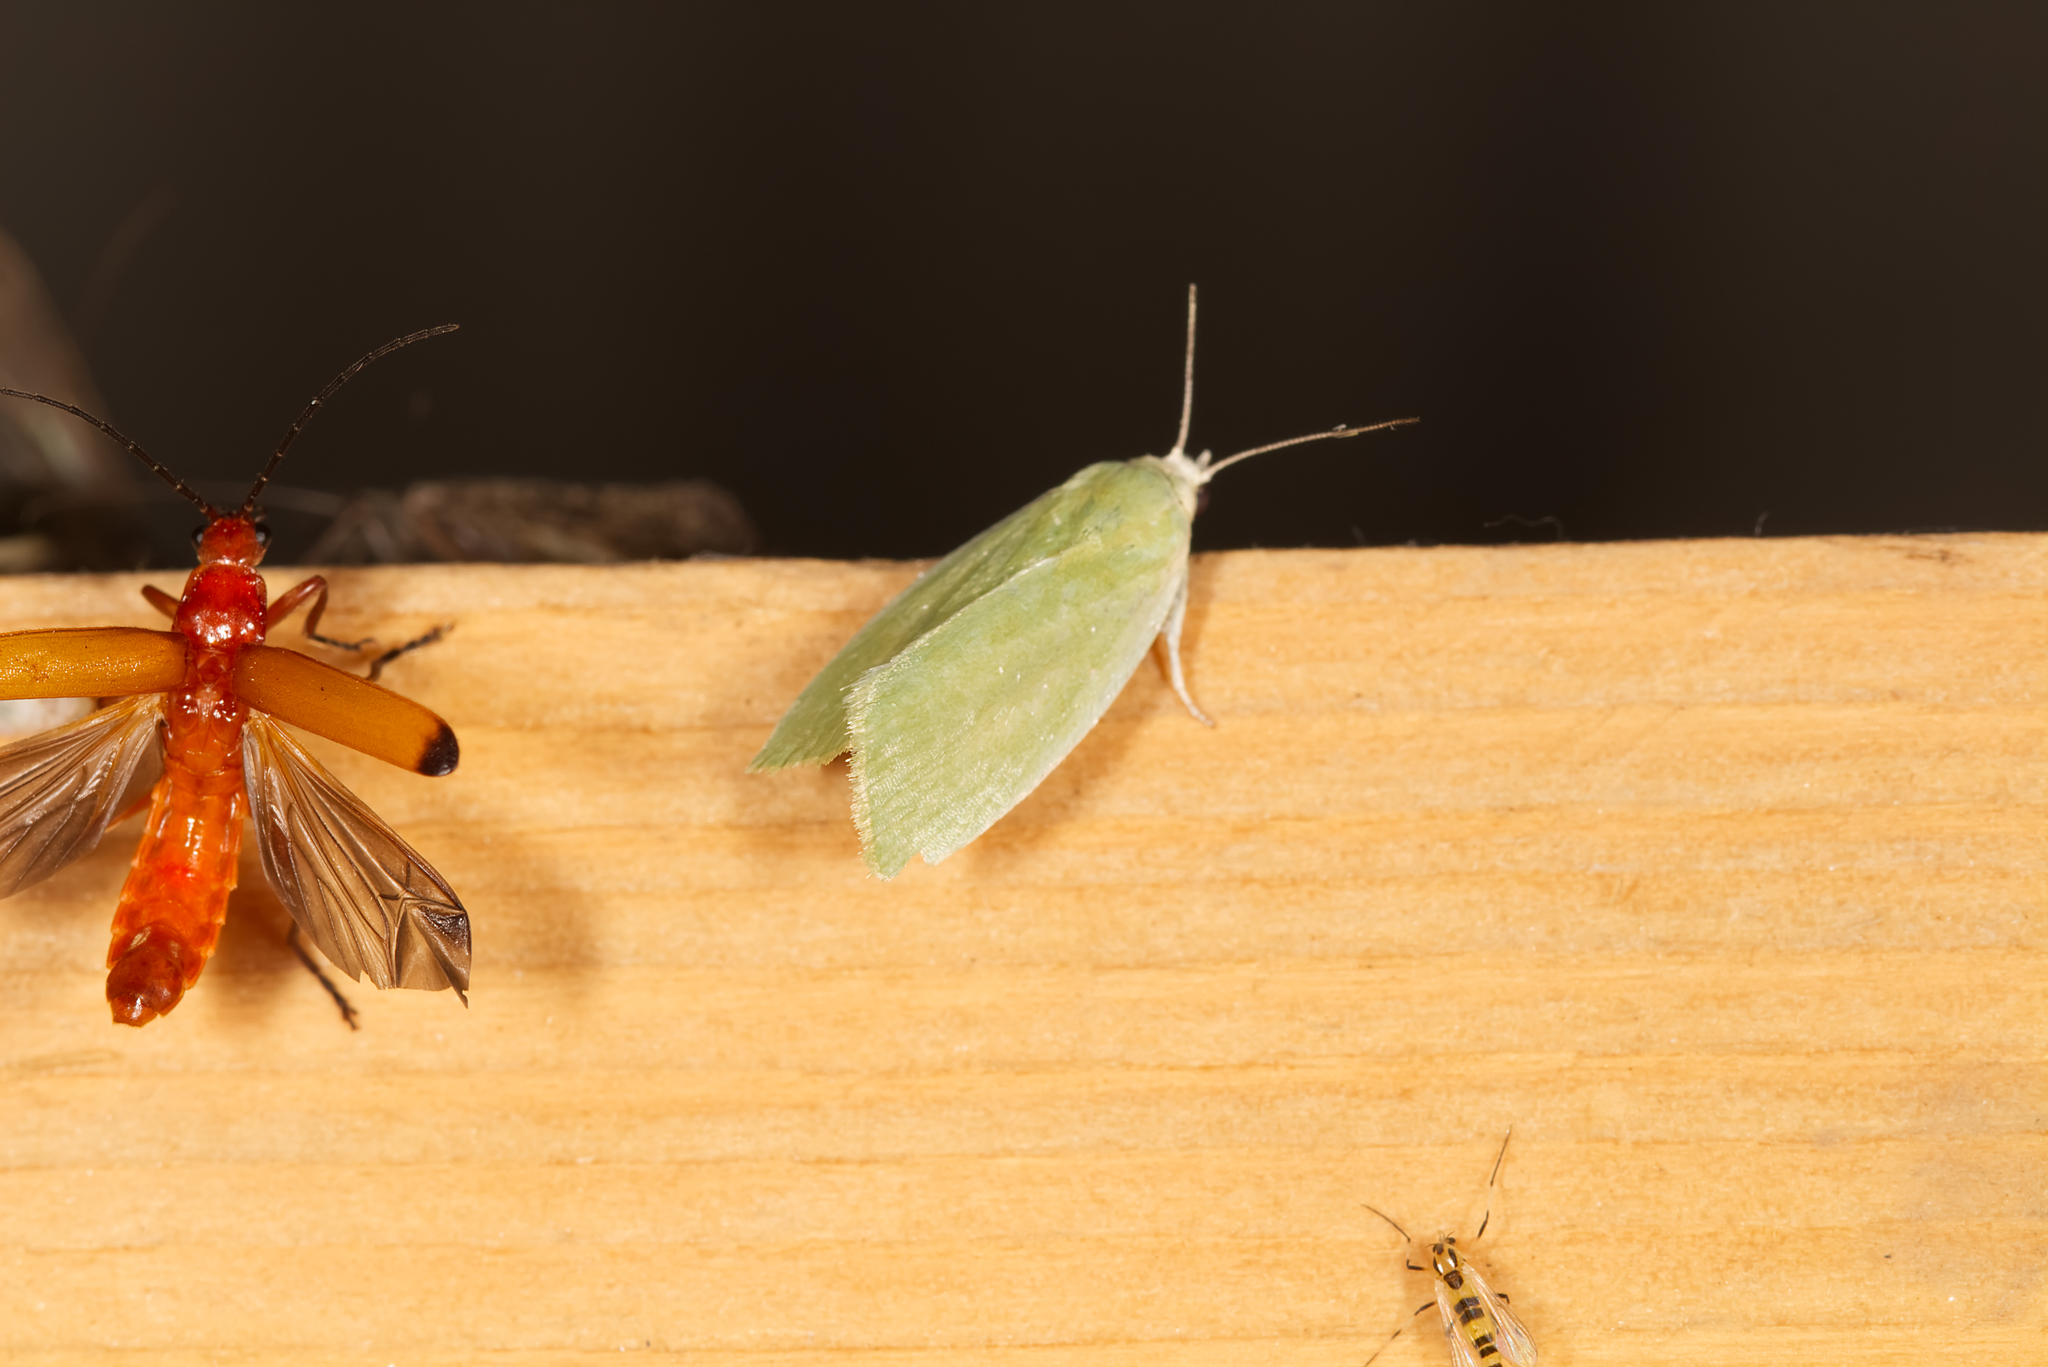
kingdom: Animalia
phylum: Arthropoda
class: Insecta
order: Lepidoptera
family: Nolidae
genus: Earias
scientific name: Earias clorana
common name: Cream-bordered green pea
